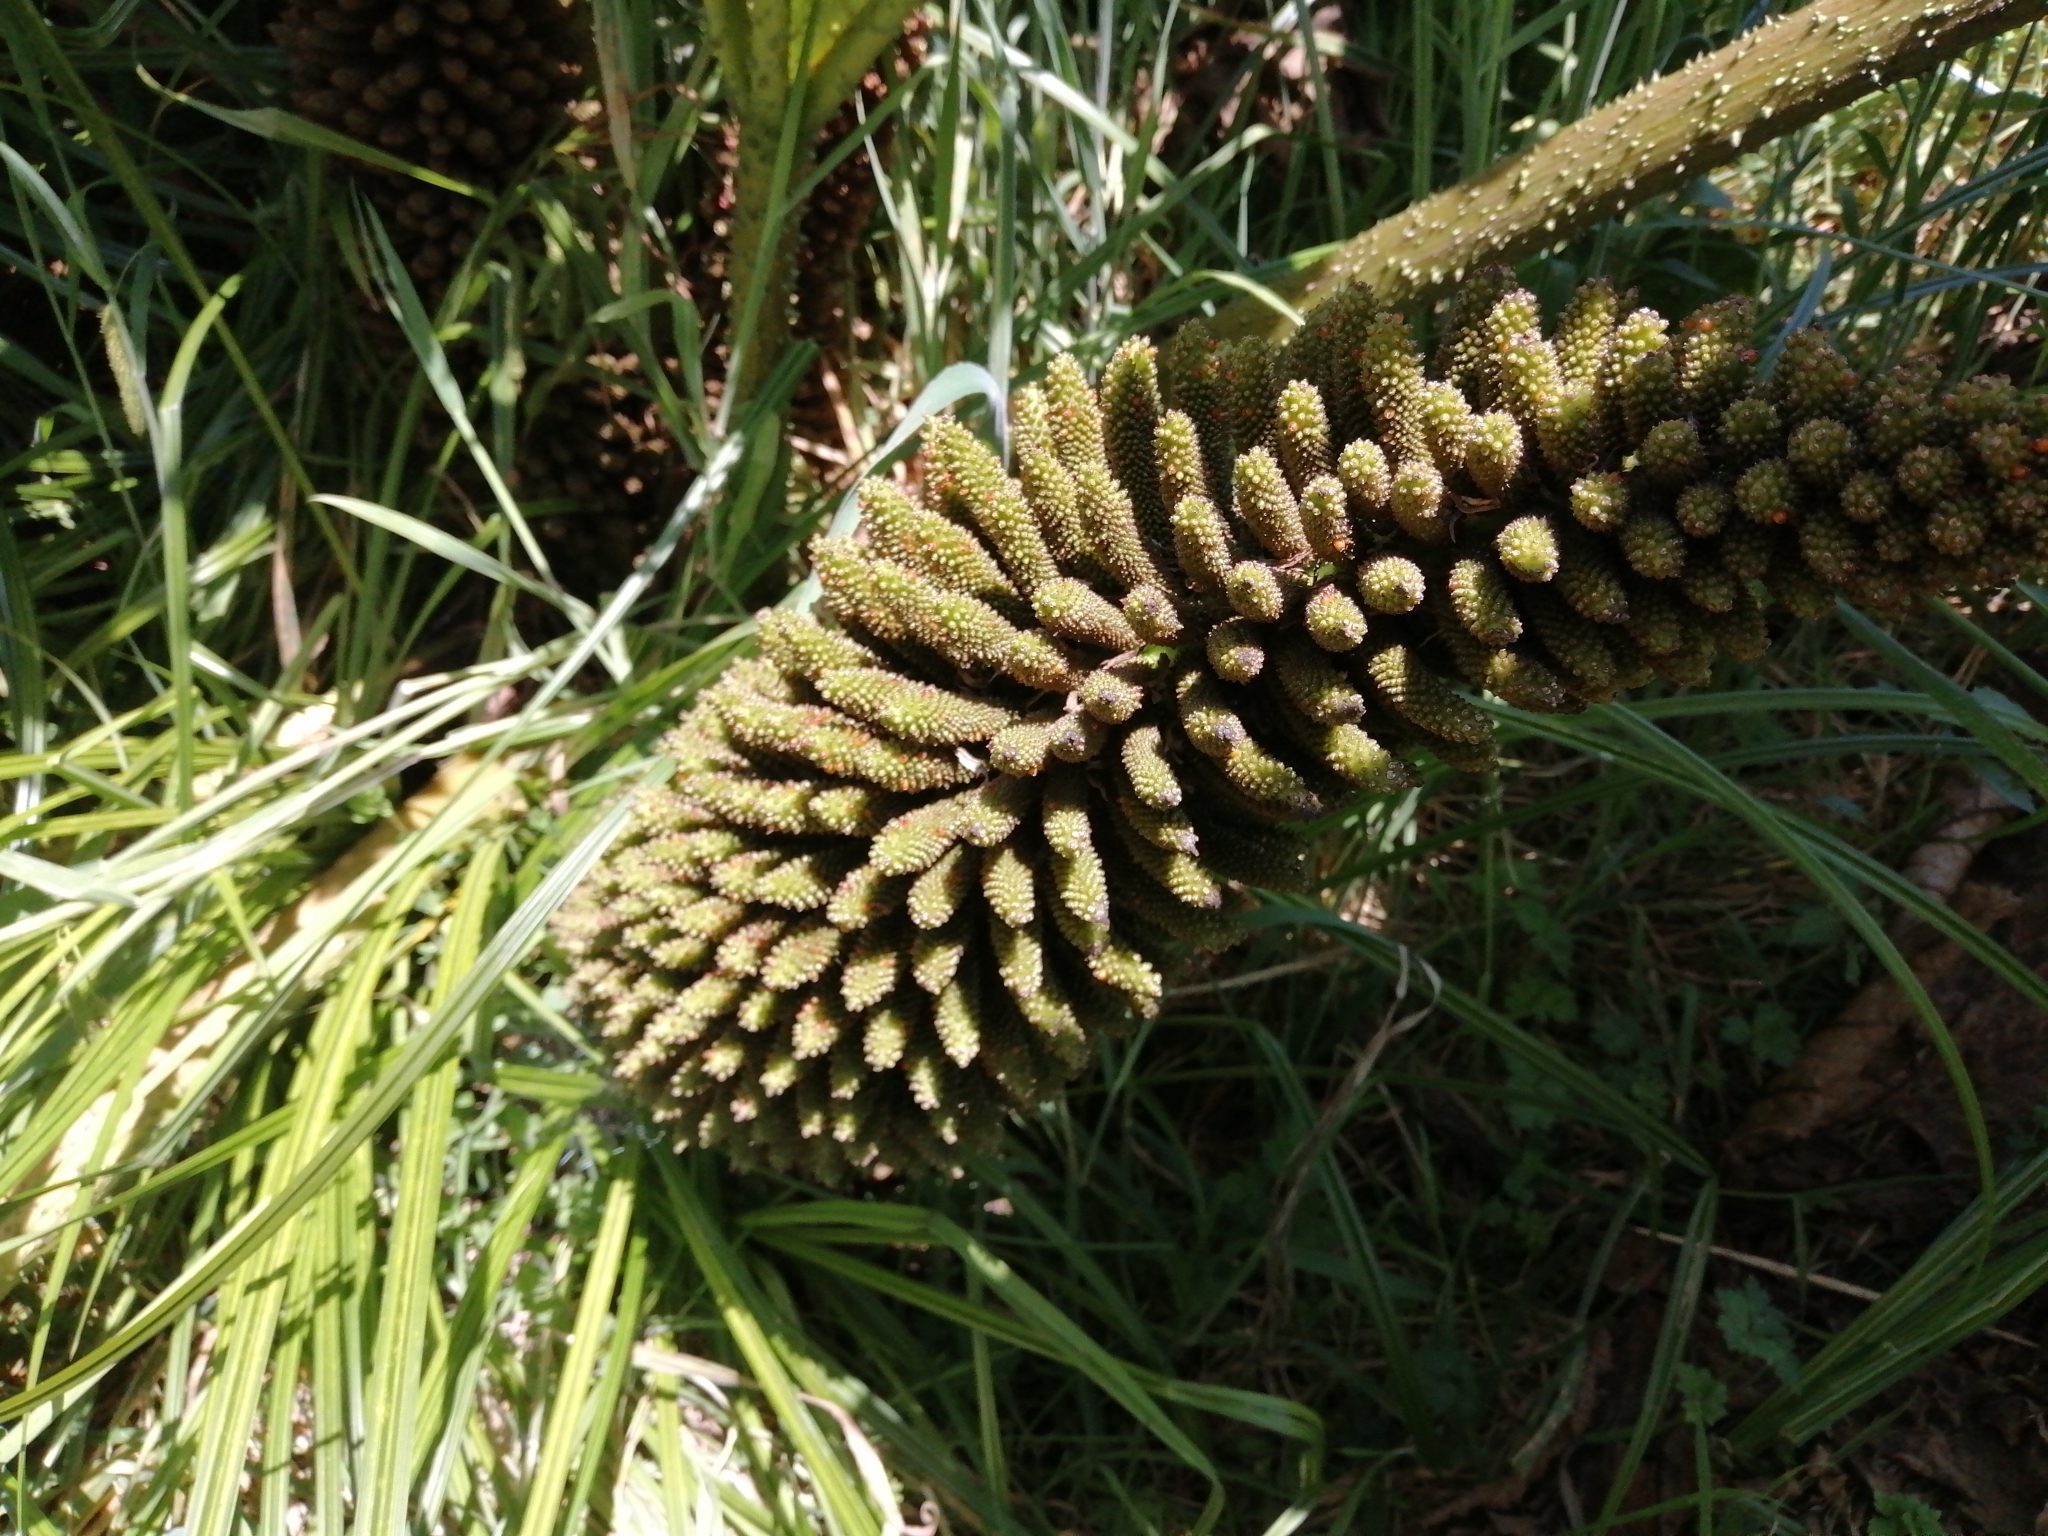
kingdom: Plantae
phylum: Tracheophyta
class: Magnoliopsida
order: Gunnerales
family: Gunneraceae
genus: Gunnera
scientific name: Gunnera tinctoria
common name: Giant-rhubarb
